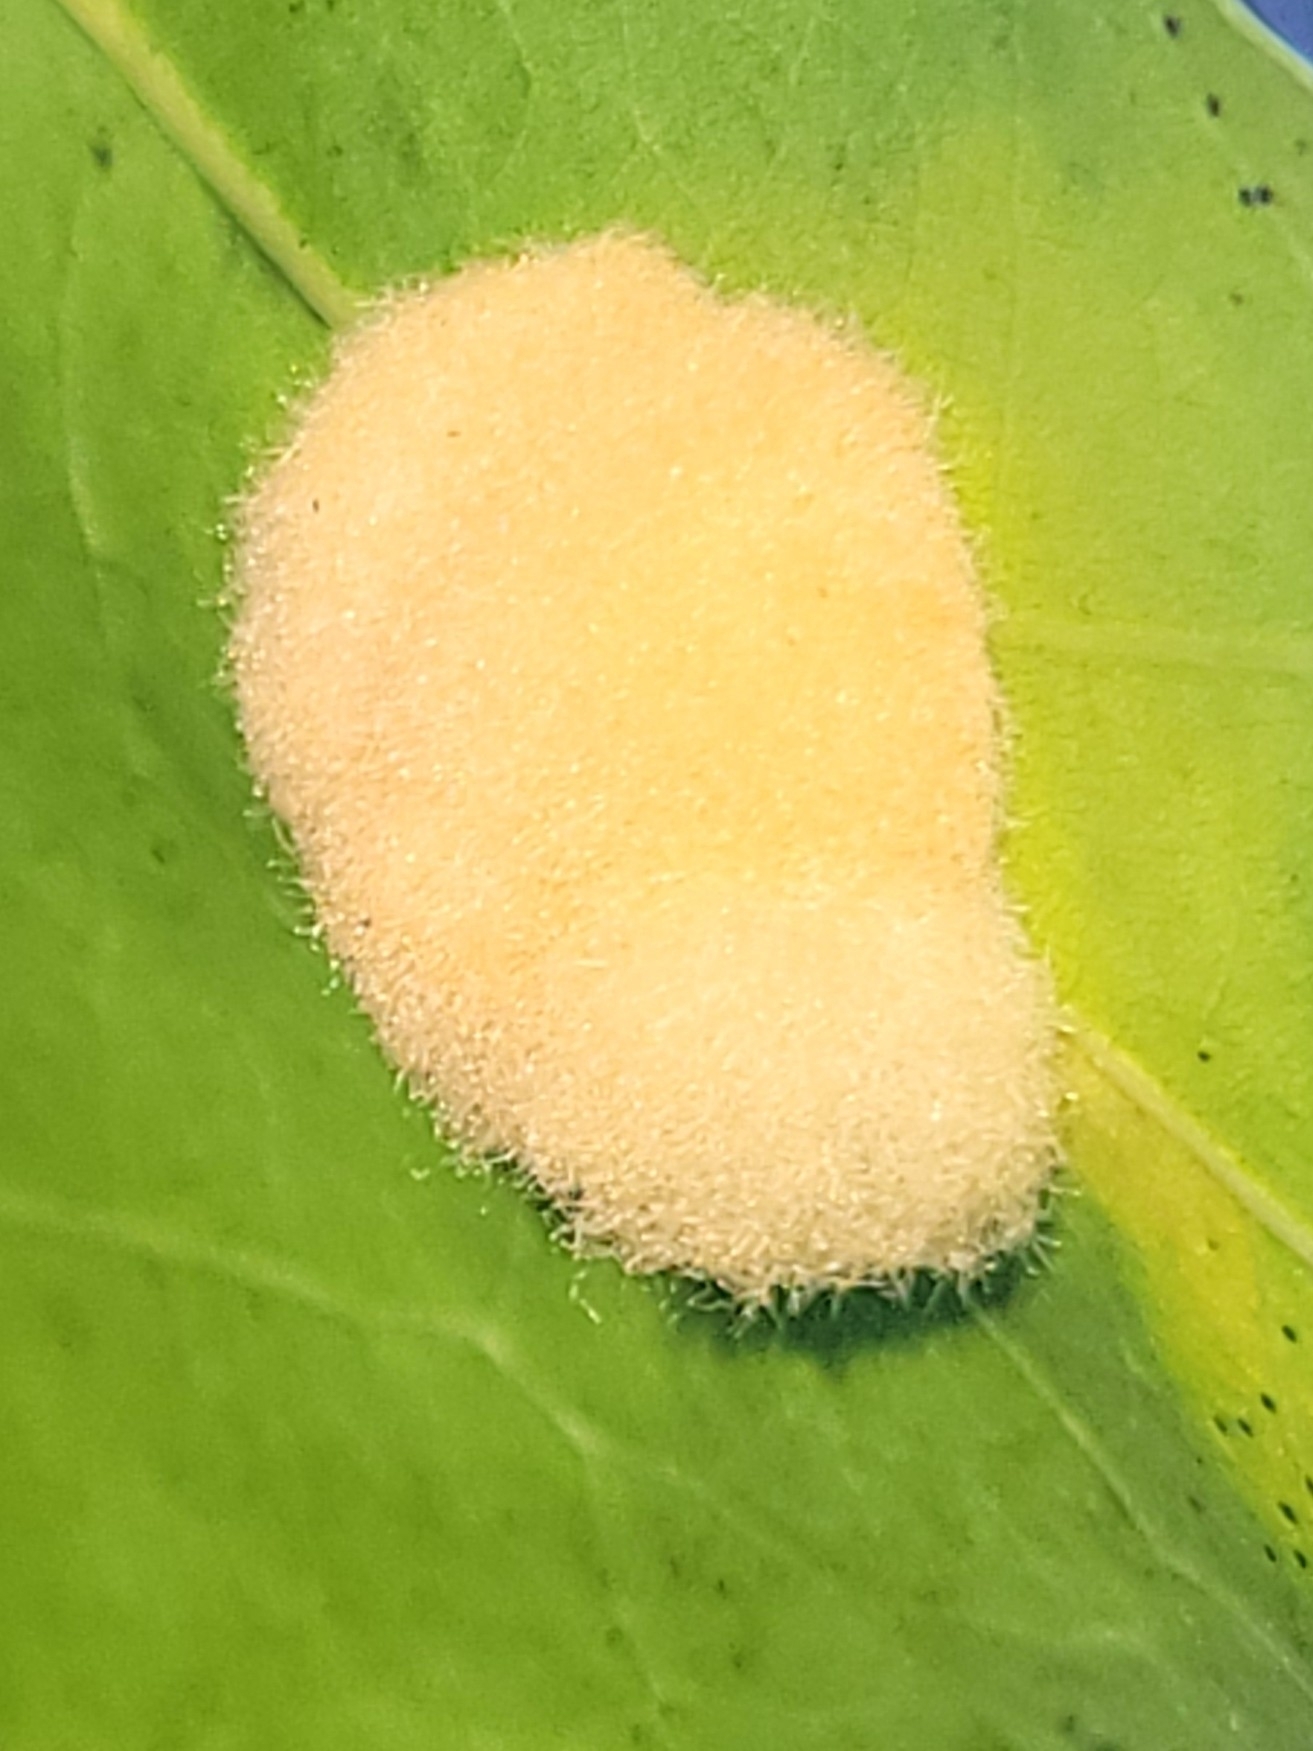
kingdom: Animalia
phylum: Arthropoda
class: Insecta
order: Hymenoptera
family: Cynipidae
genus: Callirhytis
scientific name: Callirhytis
